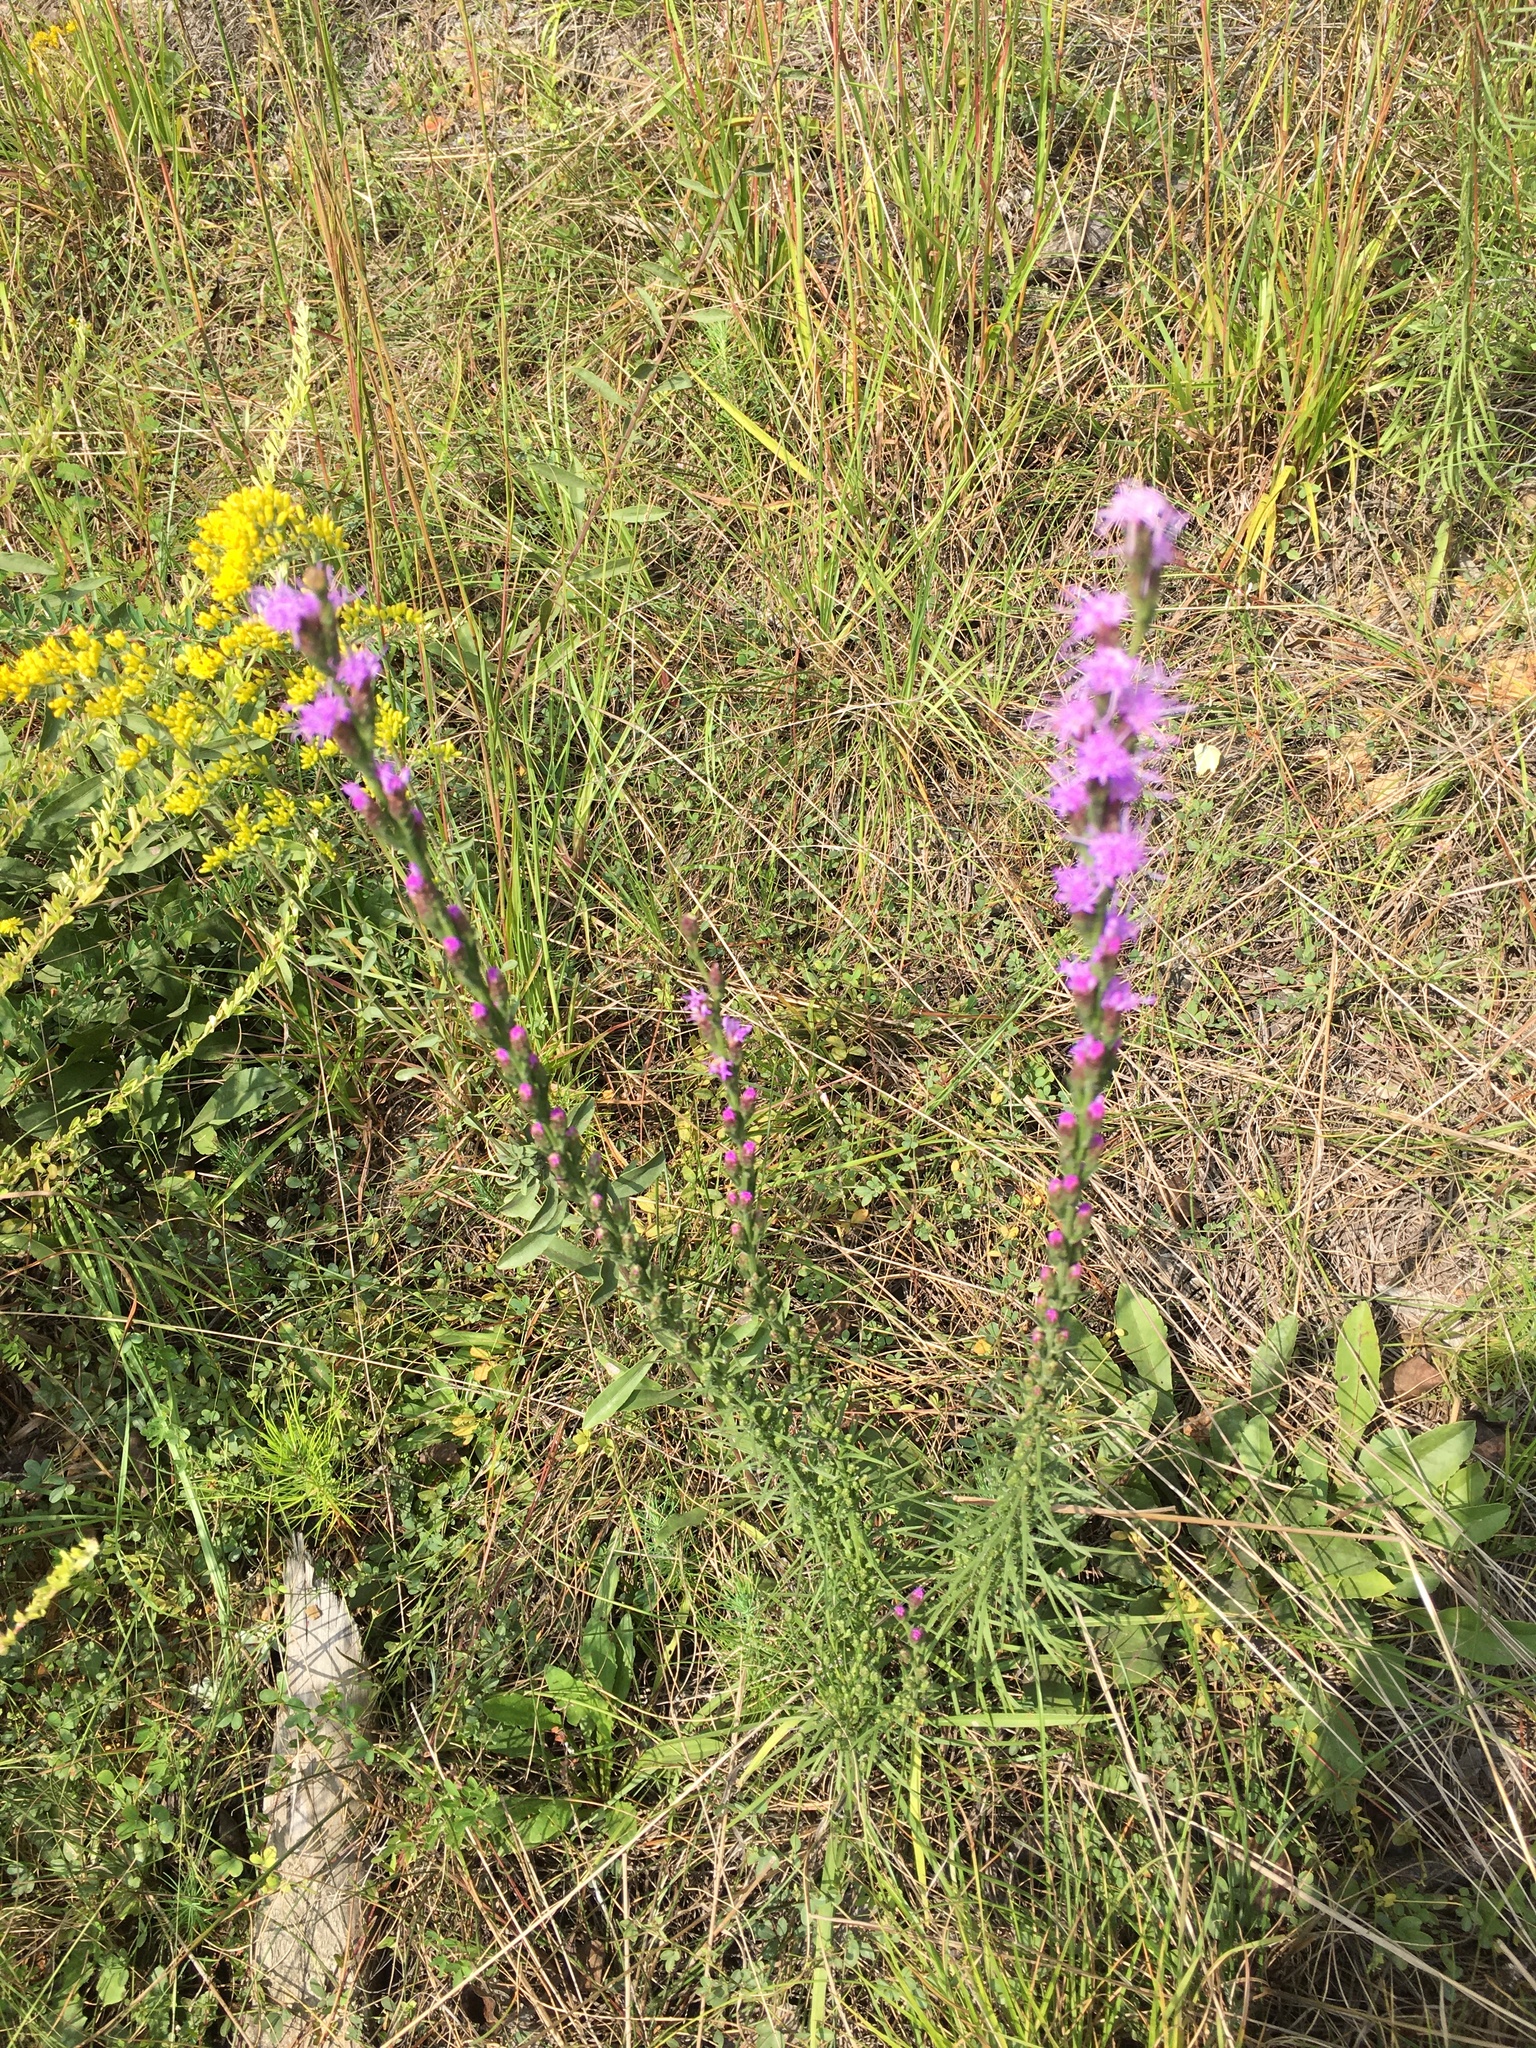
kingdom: Plantae
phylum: Tracheophyta
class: Magnoliopsida
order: Asterales
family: Asteraceae
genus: Liatris
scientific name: Liatris pilosa
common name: Grass-leaf gayfeather
